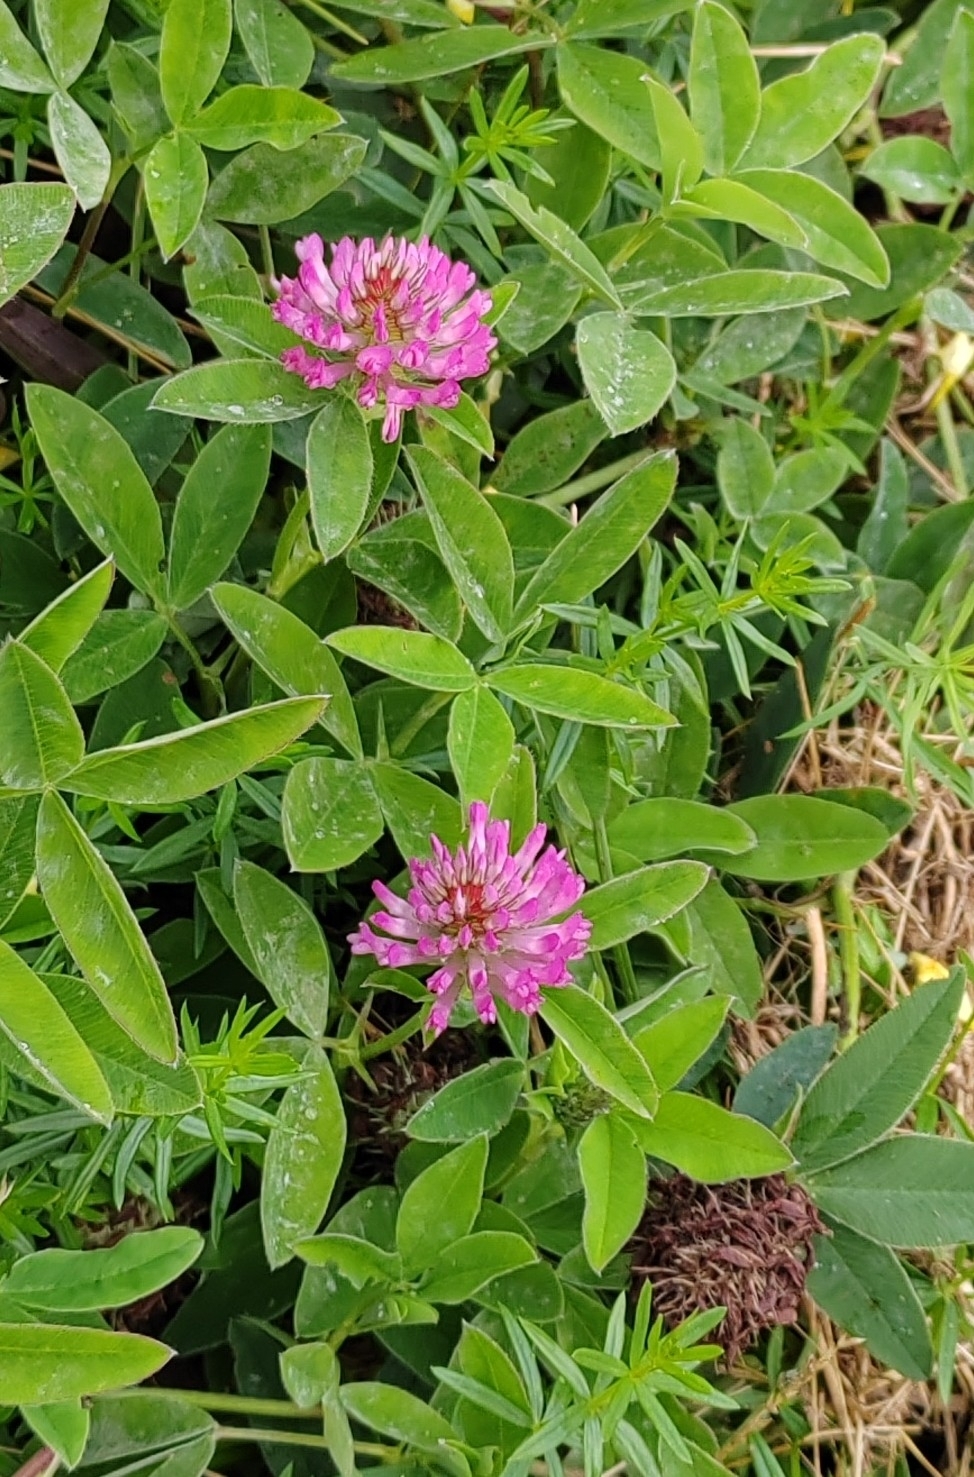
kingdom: Plantae
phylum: Tracheophyta
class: Magnoliopsida
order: Fabales
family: Fabaceae
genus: Trifolium
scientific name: Trifolium medium
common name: Zigzag clover
